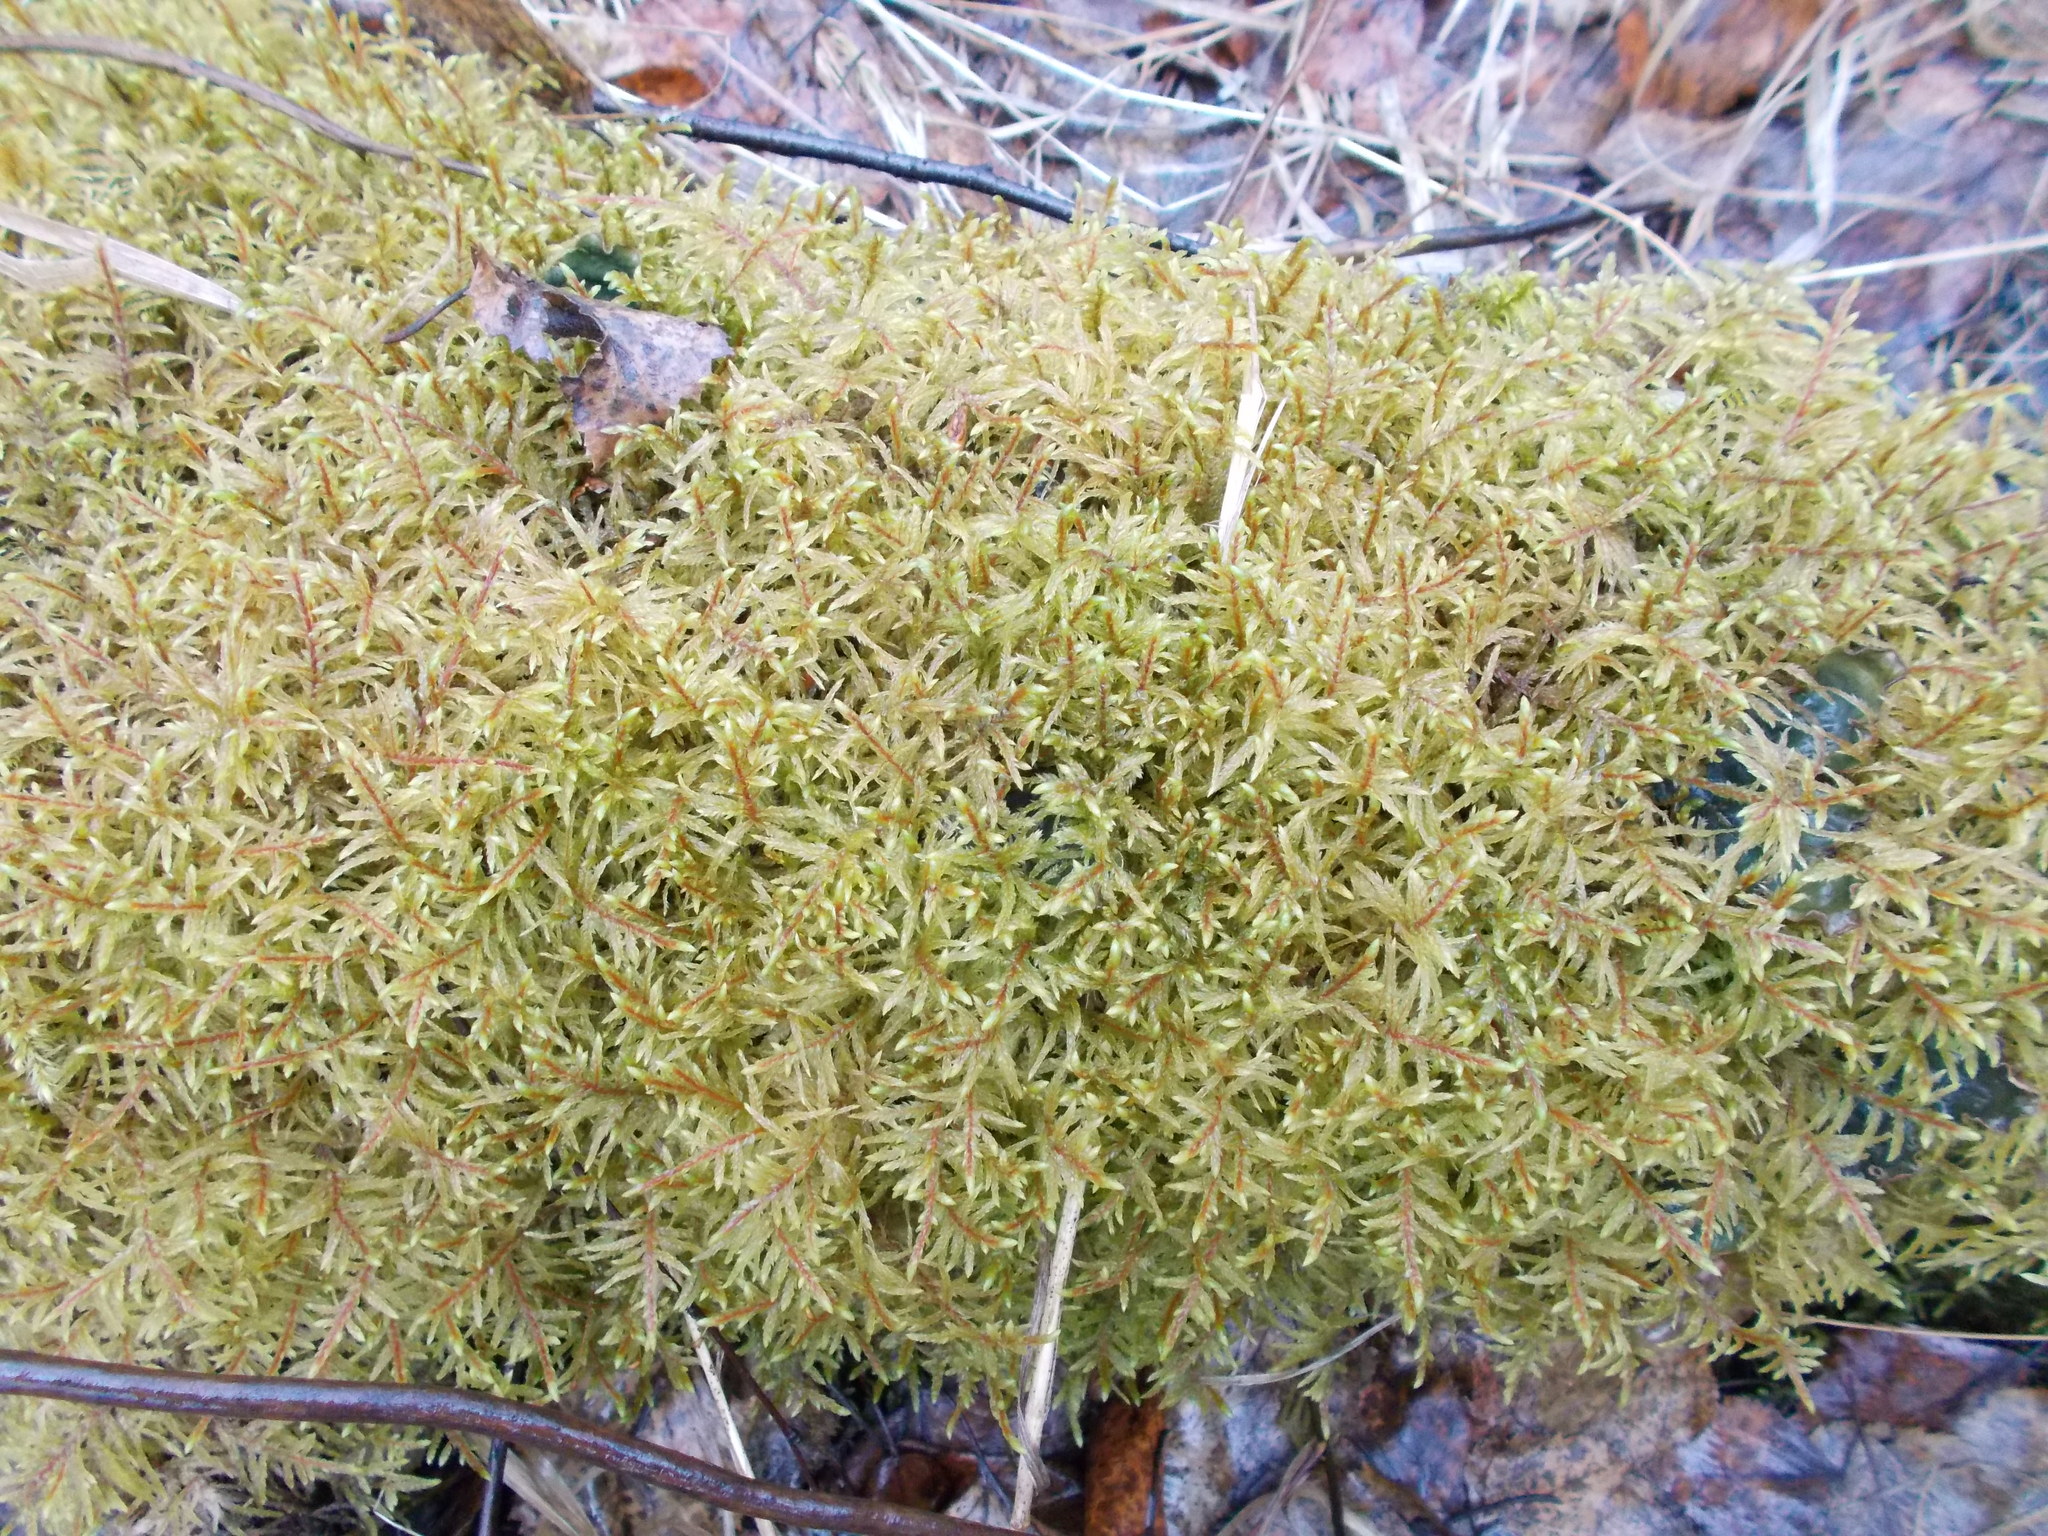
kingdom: Plantae
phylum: Bryophyta
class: Bryopsida
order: Hypnales
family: Hylocomiaceae
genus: Pleurozium
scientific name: Pleurozium schreberi
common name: Red-stemmed feather moss
